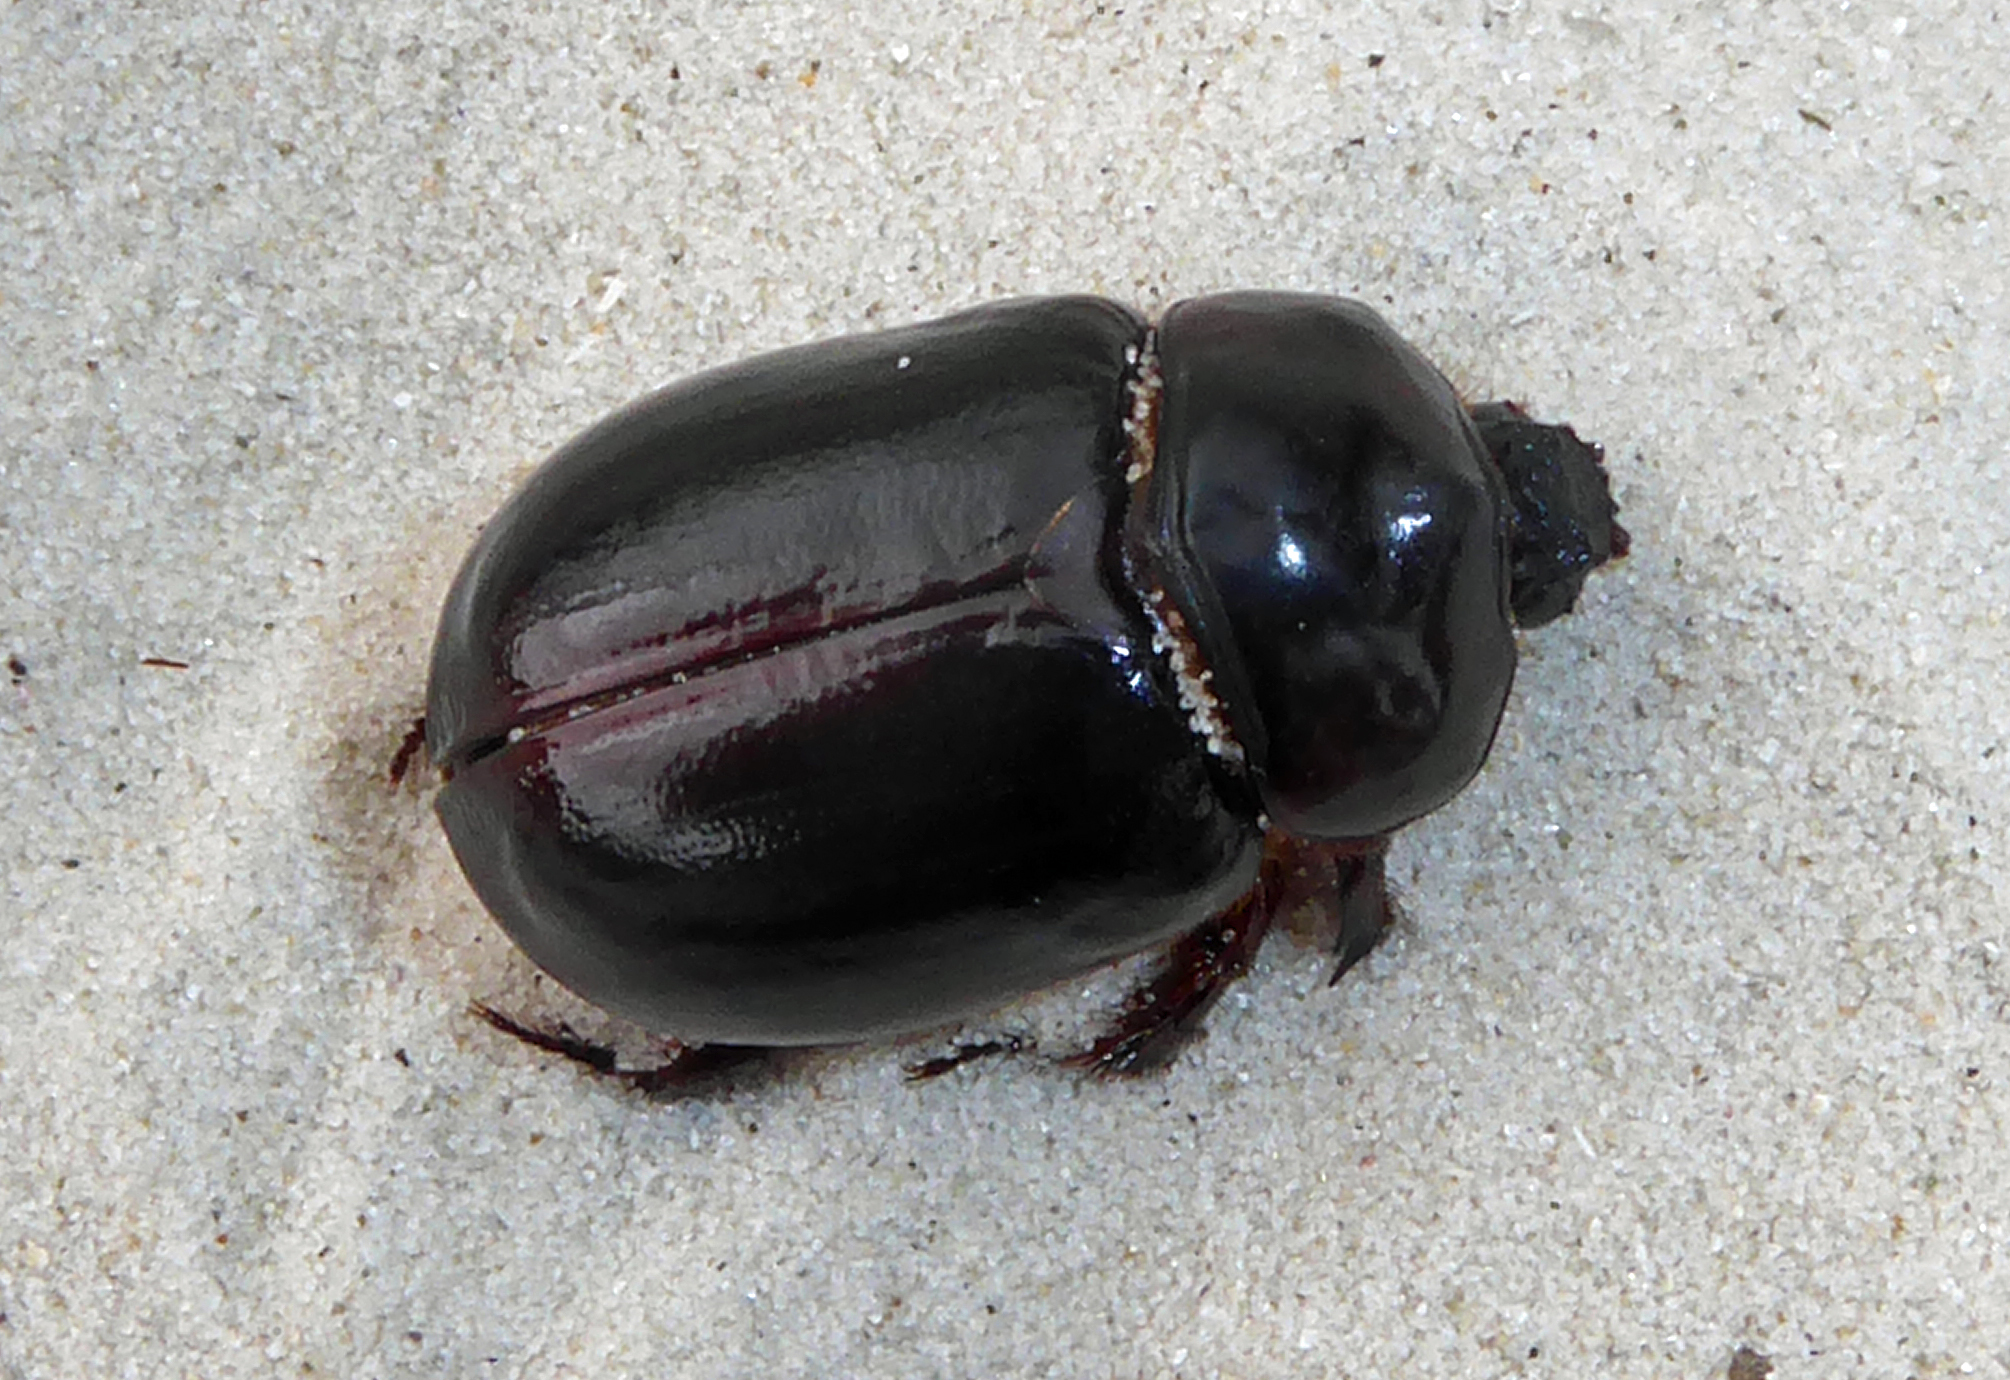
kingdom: Animalia
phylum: Arthropoda
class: Insecta
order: Coleoptera
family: Scarabaeidae
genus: Pericoptus
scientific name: Pericoptus truncatus
